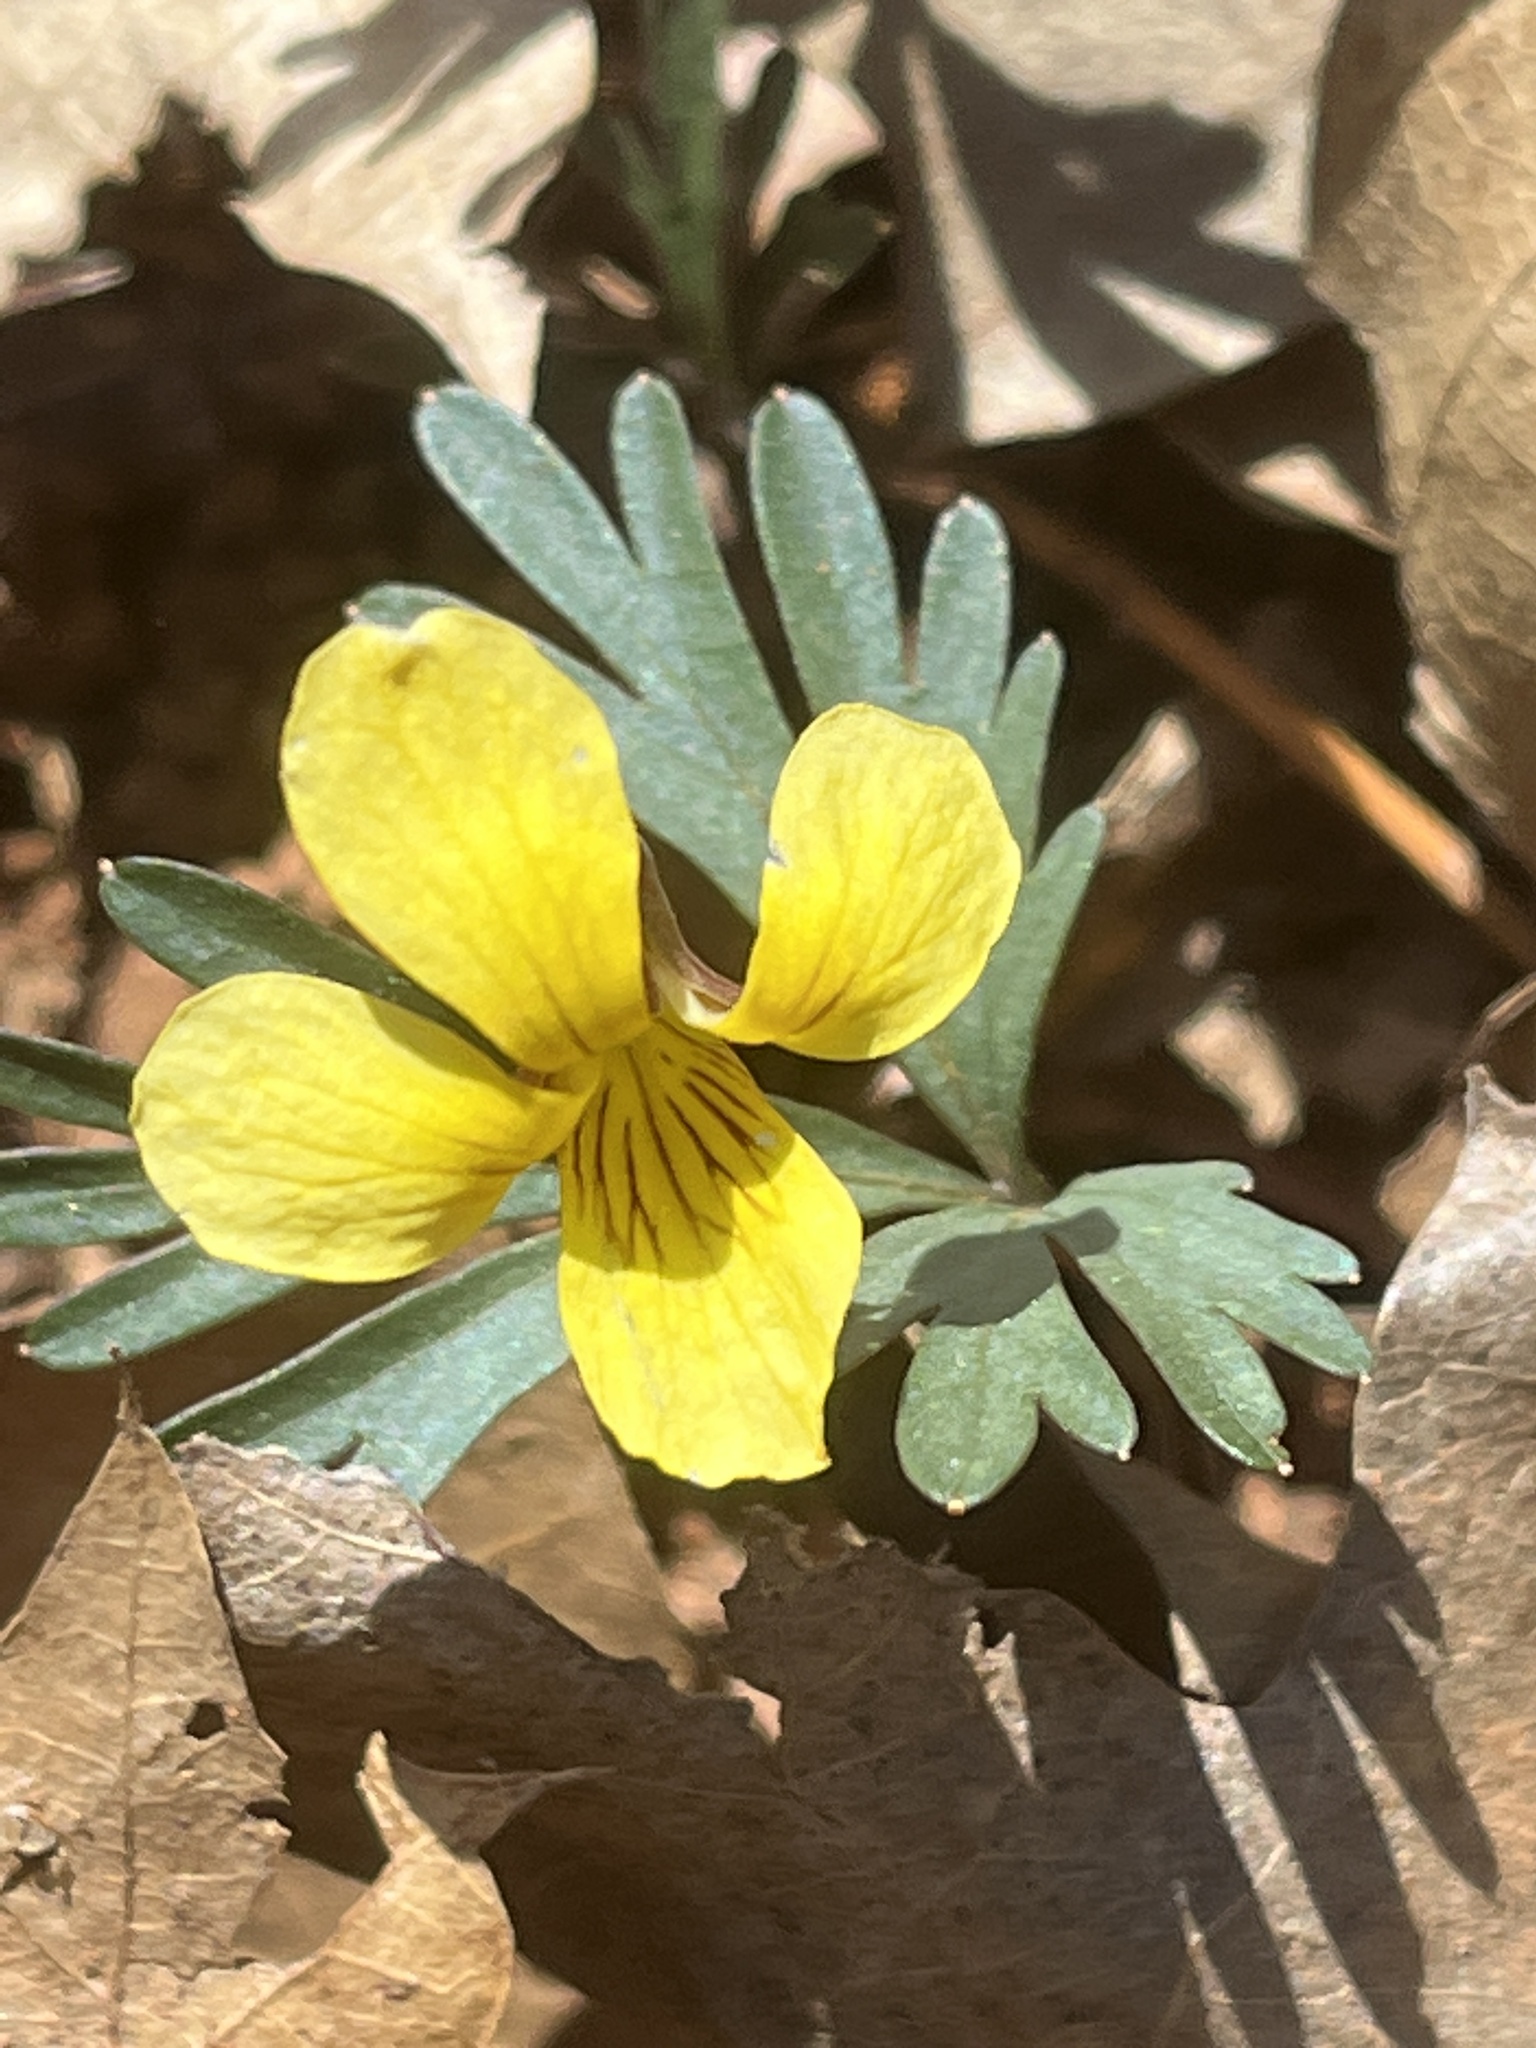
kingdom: Plantae
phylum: Tracheophyta
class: Magnoliopsida
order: Malpighiales
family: Violaceae
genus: Viola
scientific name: Viola sheltonii
